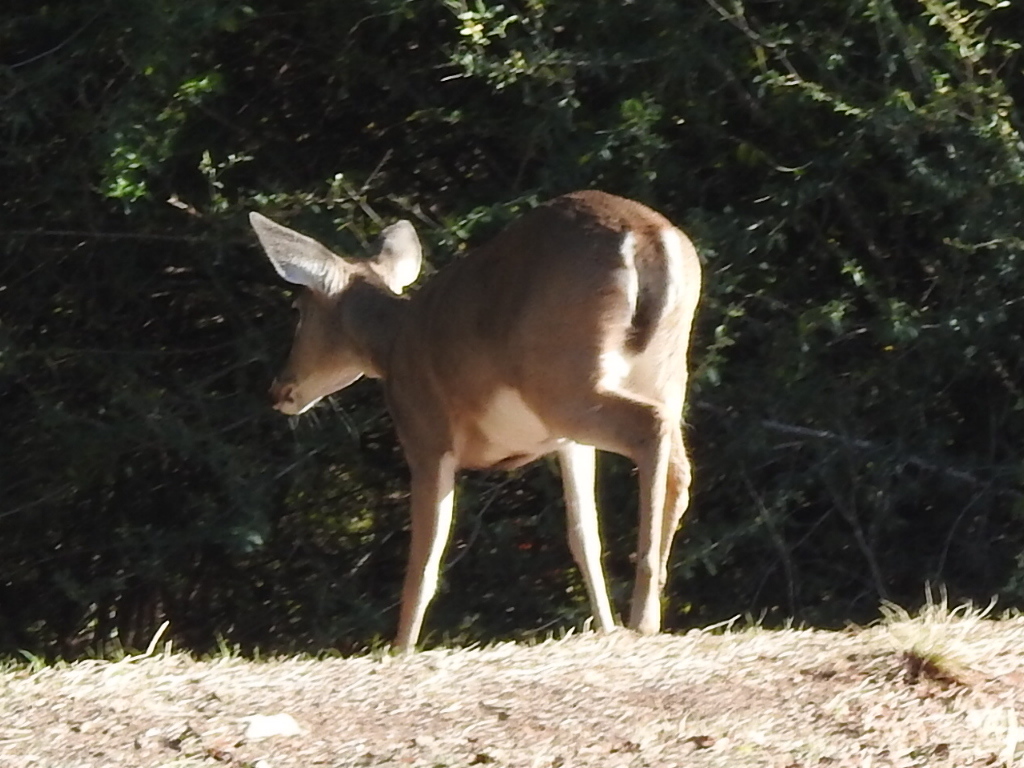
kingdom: Animalia
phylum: Chordata
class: Mammalia
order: Artiodactyla
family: Cervidae
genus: Odocoileus
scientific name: Odocoileus virginianus
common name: White-tailed deer
